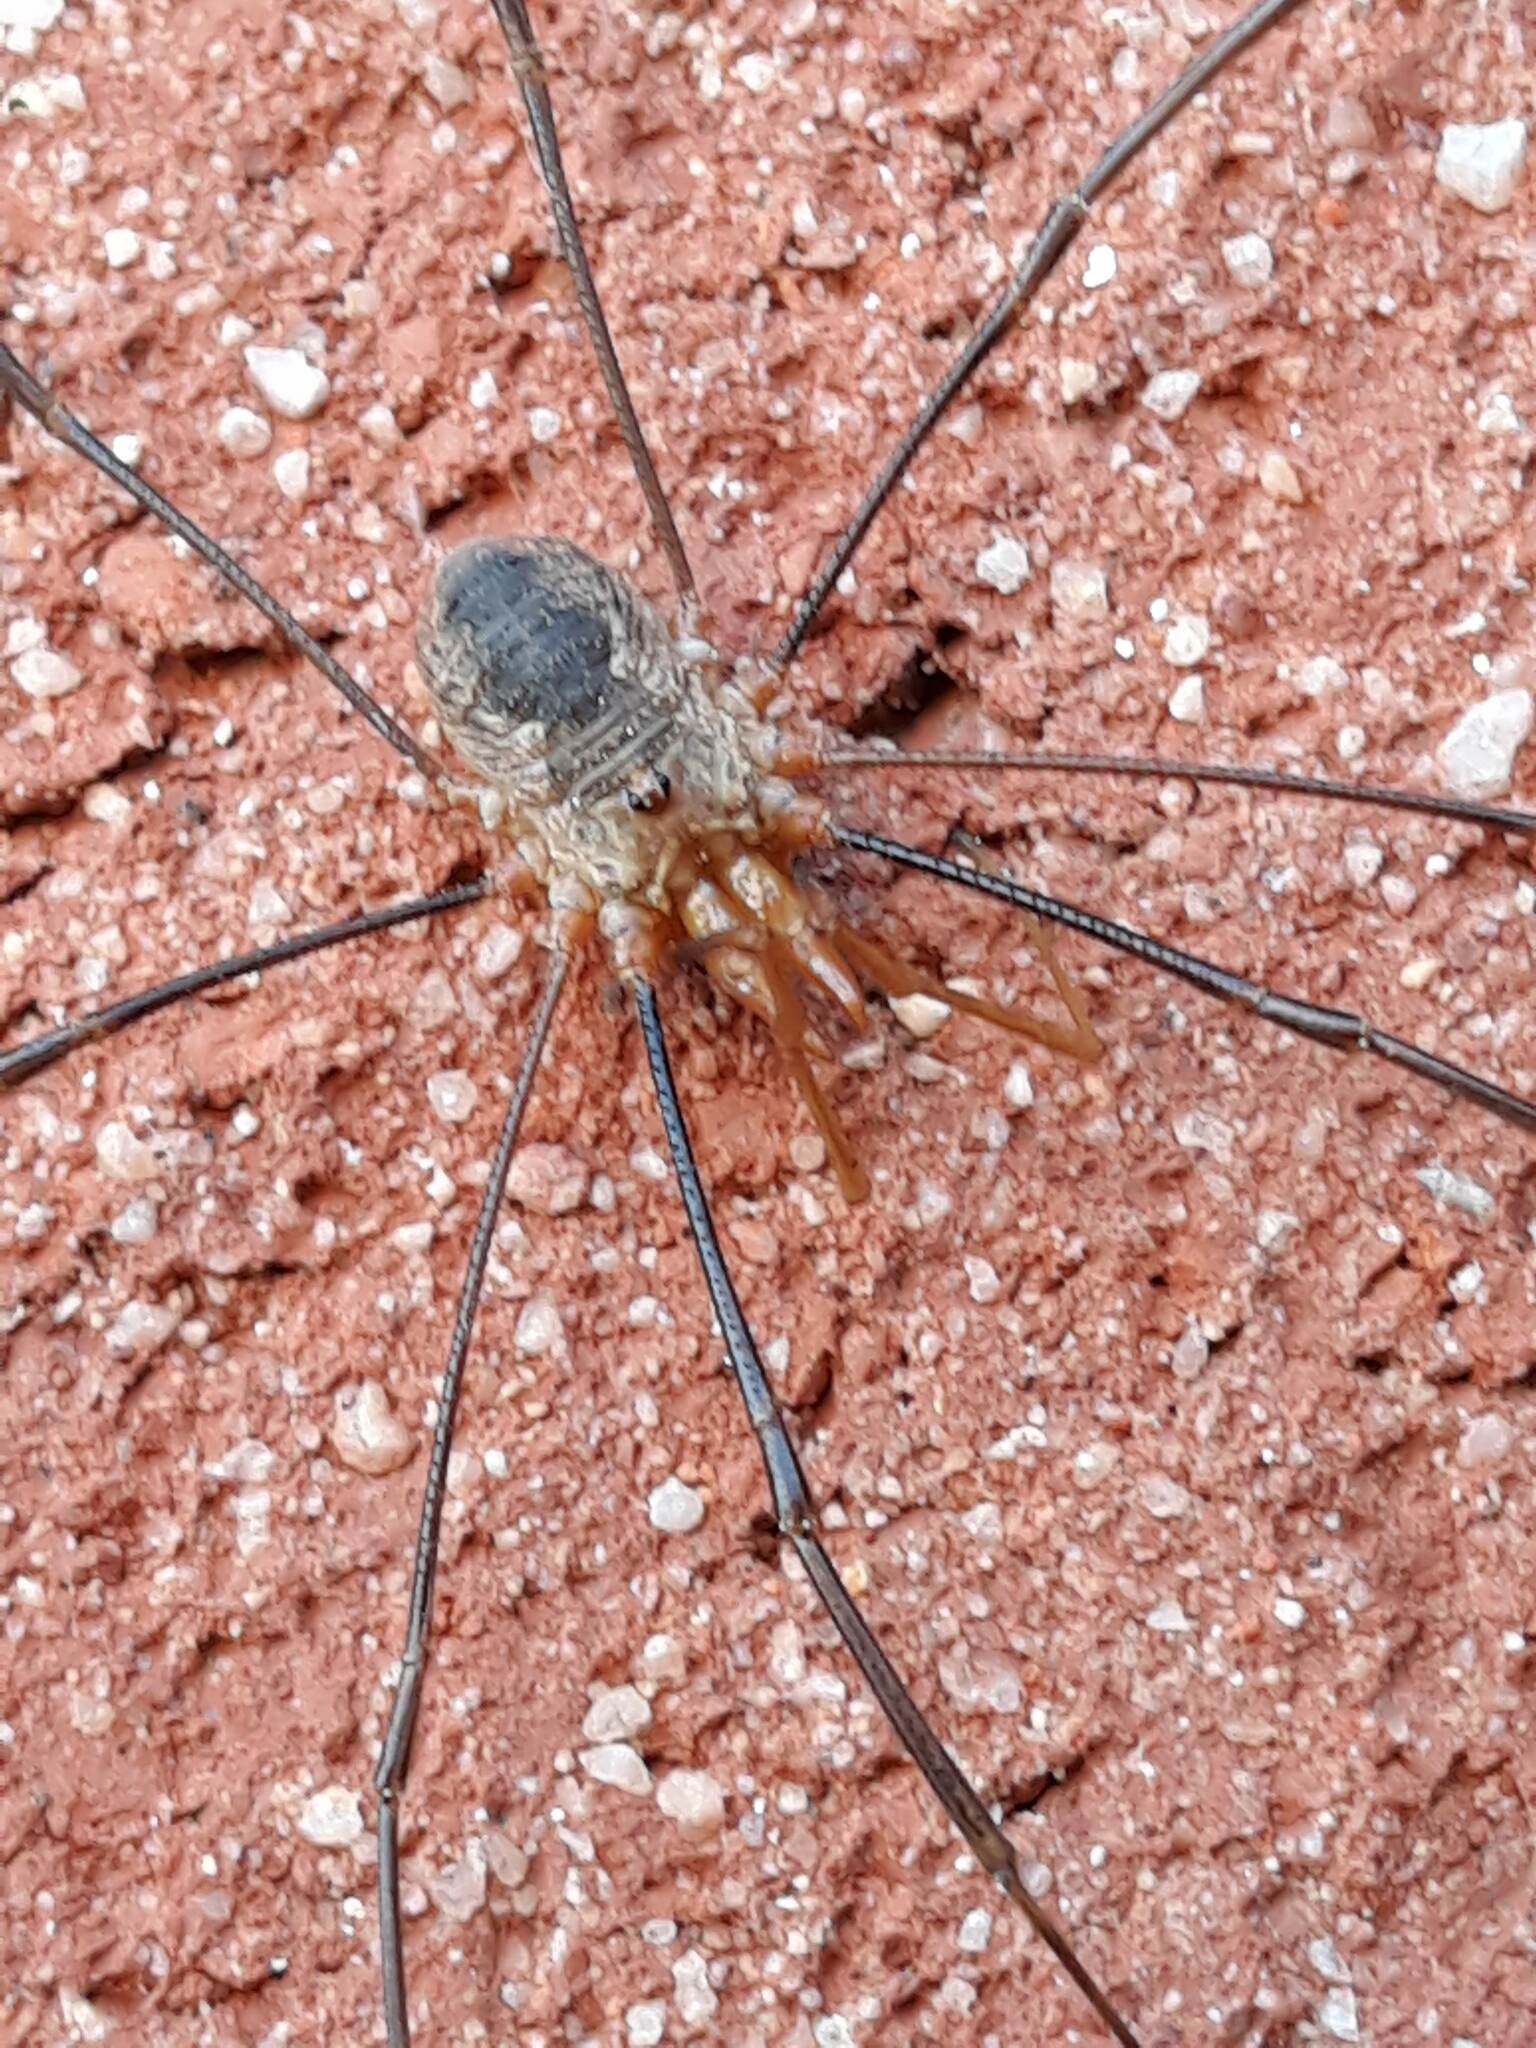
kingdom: Animalia
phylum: Arthropoda
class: Arachnida
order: Opiliones
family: Phalangiidae
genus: Phalangium
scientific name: Phalangium opilio
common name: Daddy longleg
